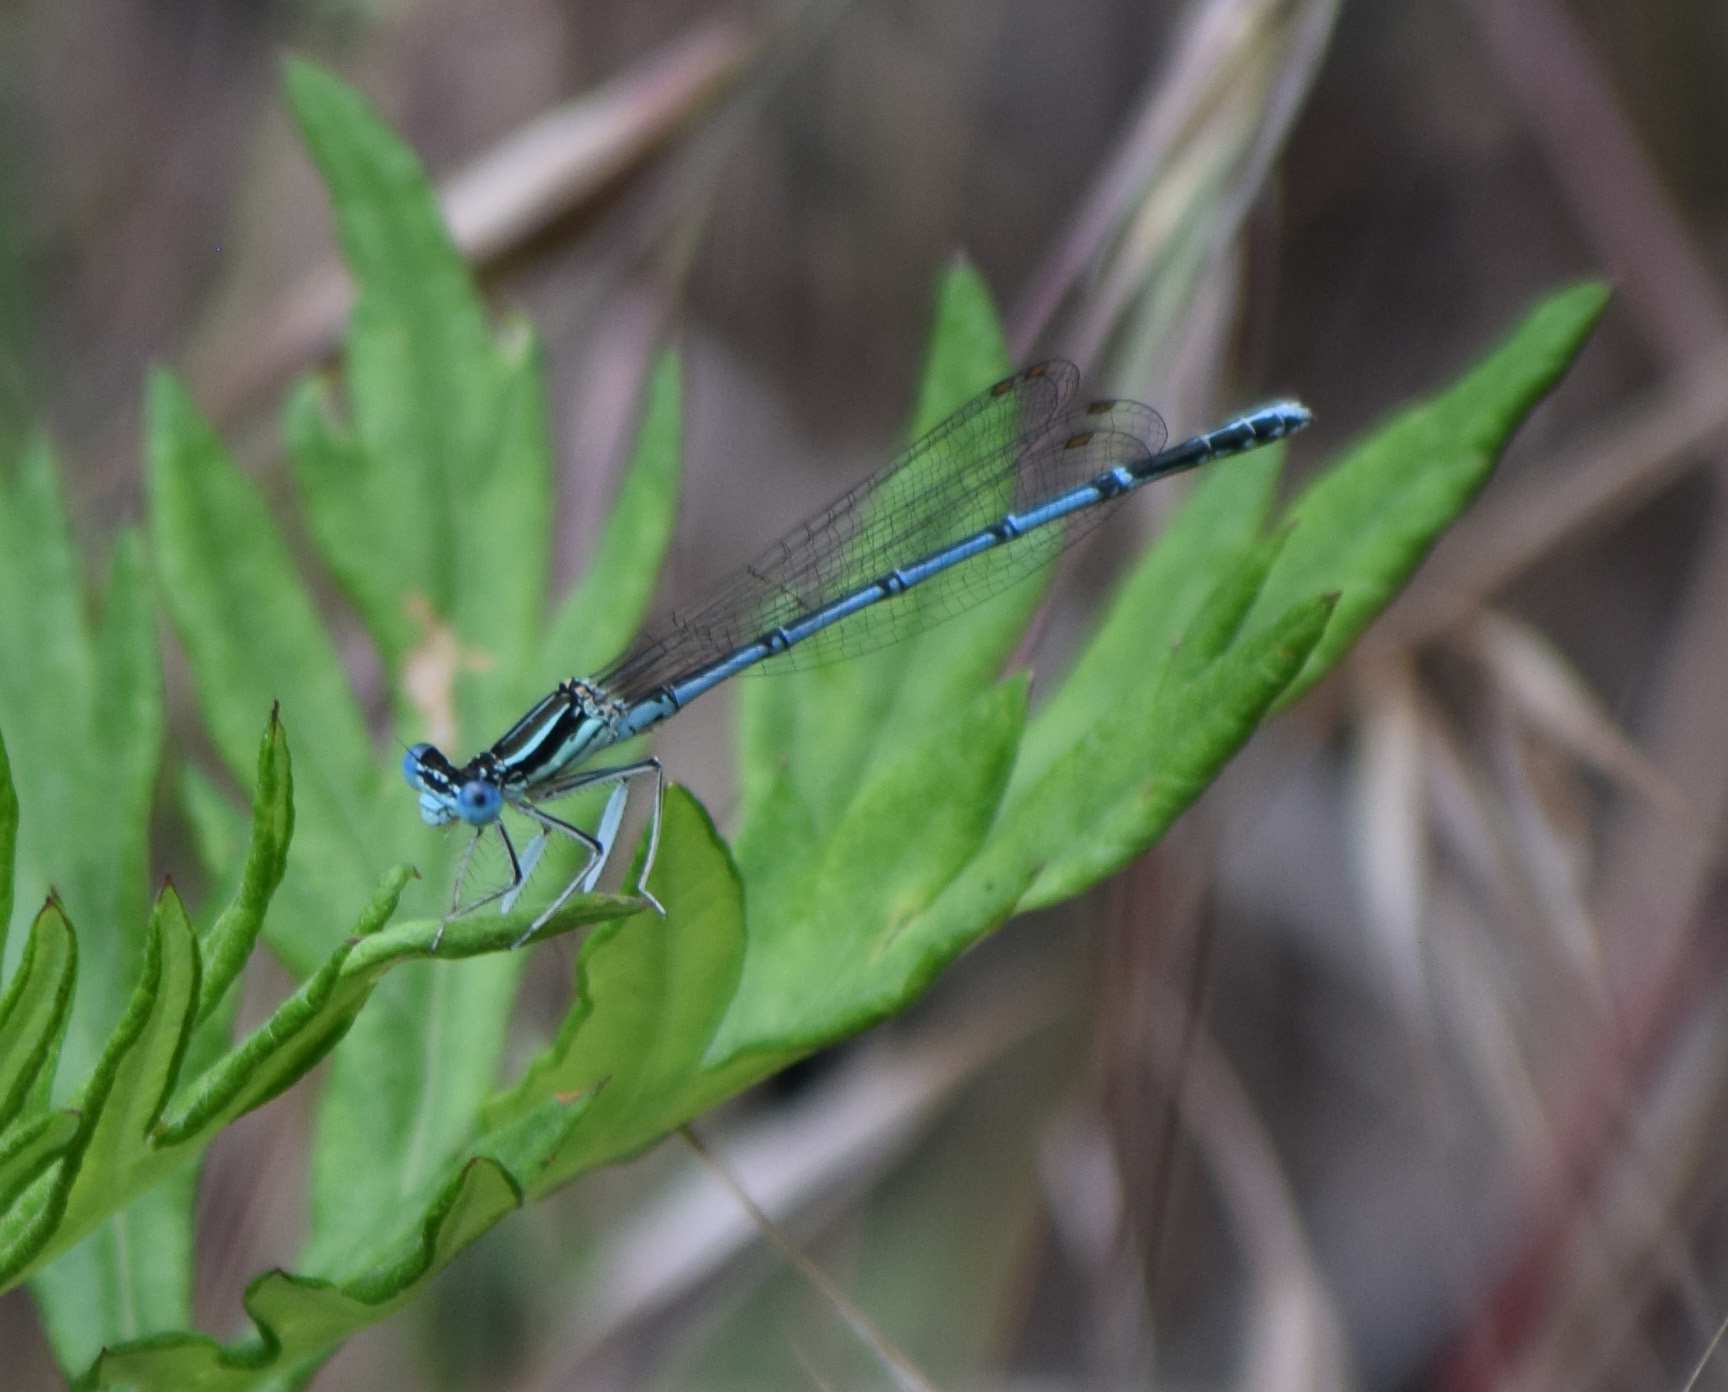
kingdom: Animalia
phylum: Arthropoda
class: Insecta
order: Odonata
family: Platycnemididae
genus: Platycnemis
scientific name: Platycnemis pennipes
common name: White-legged damselfly
